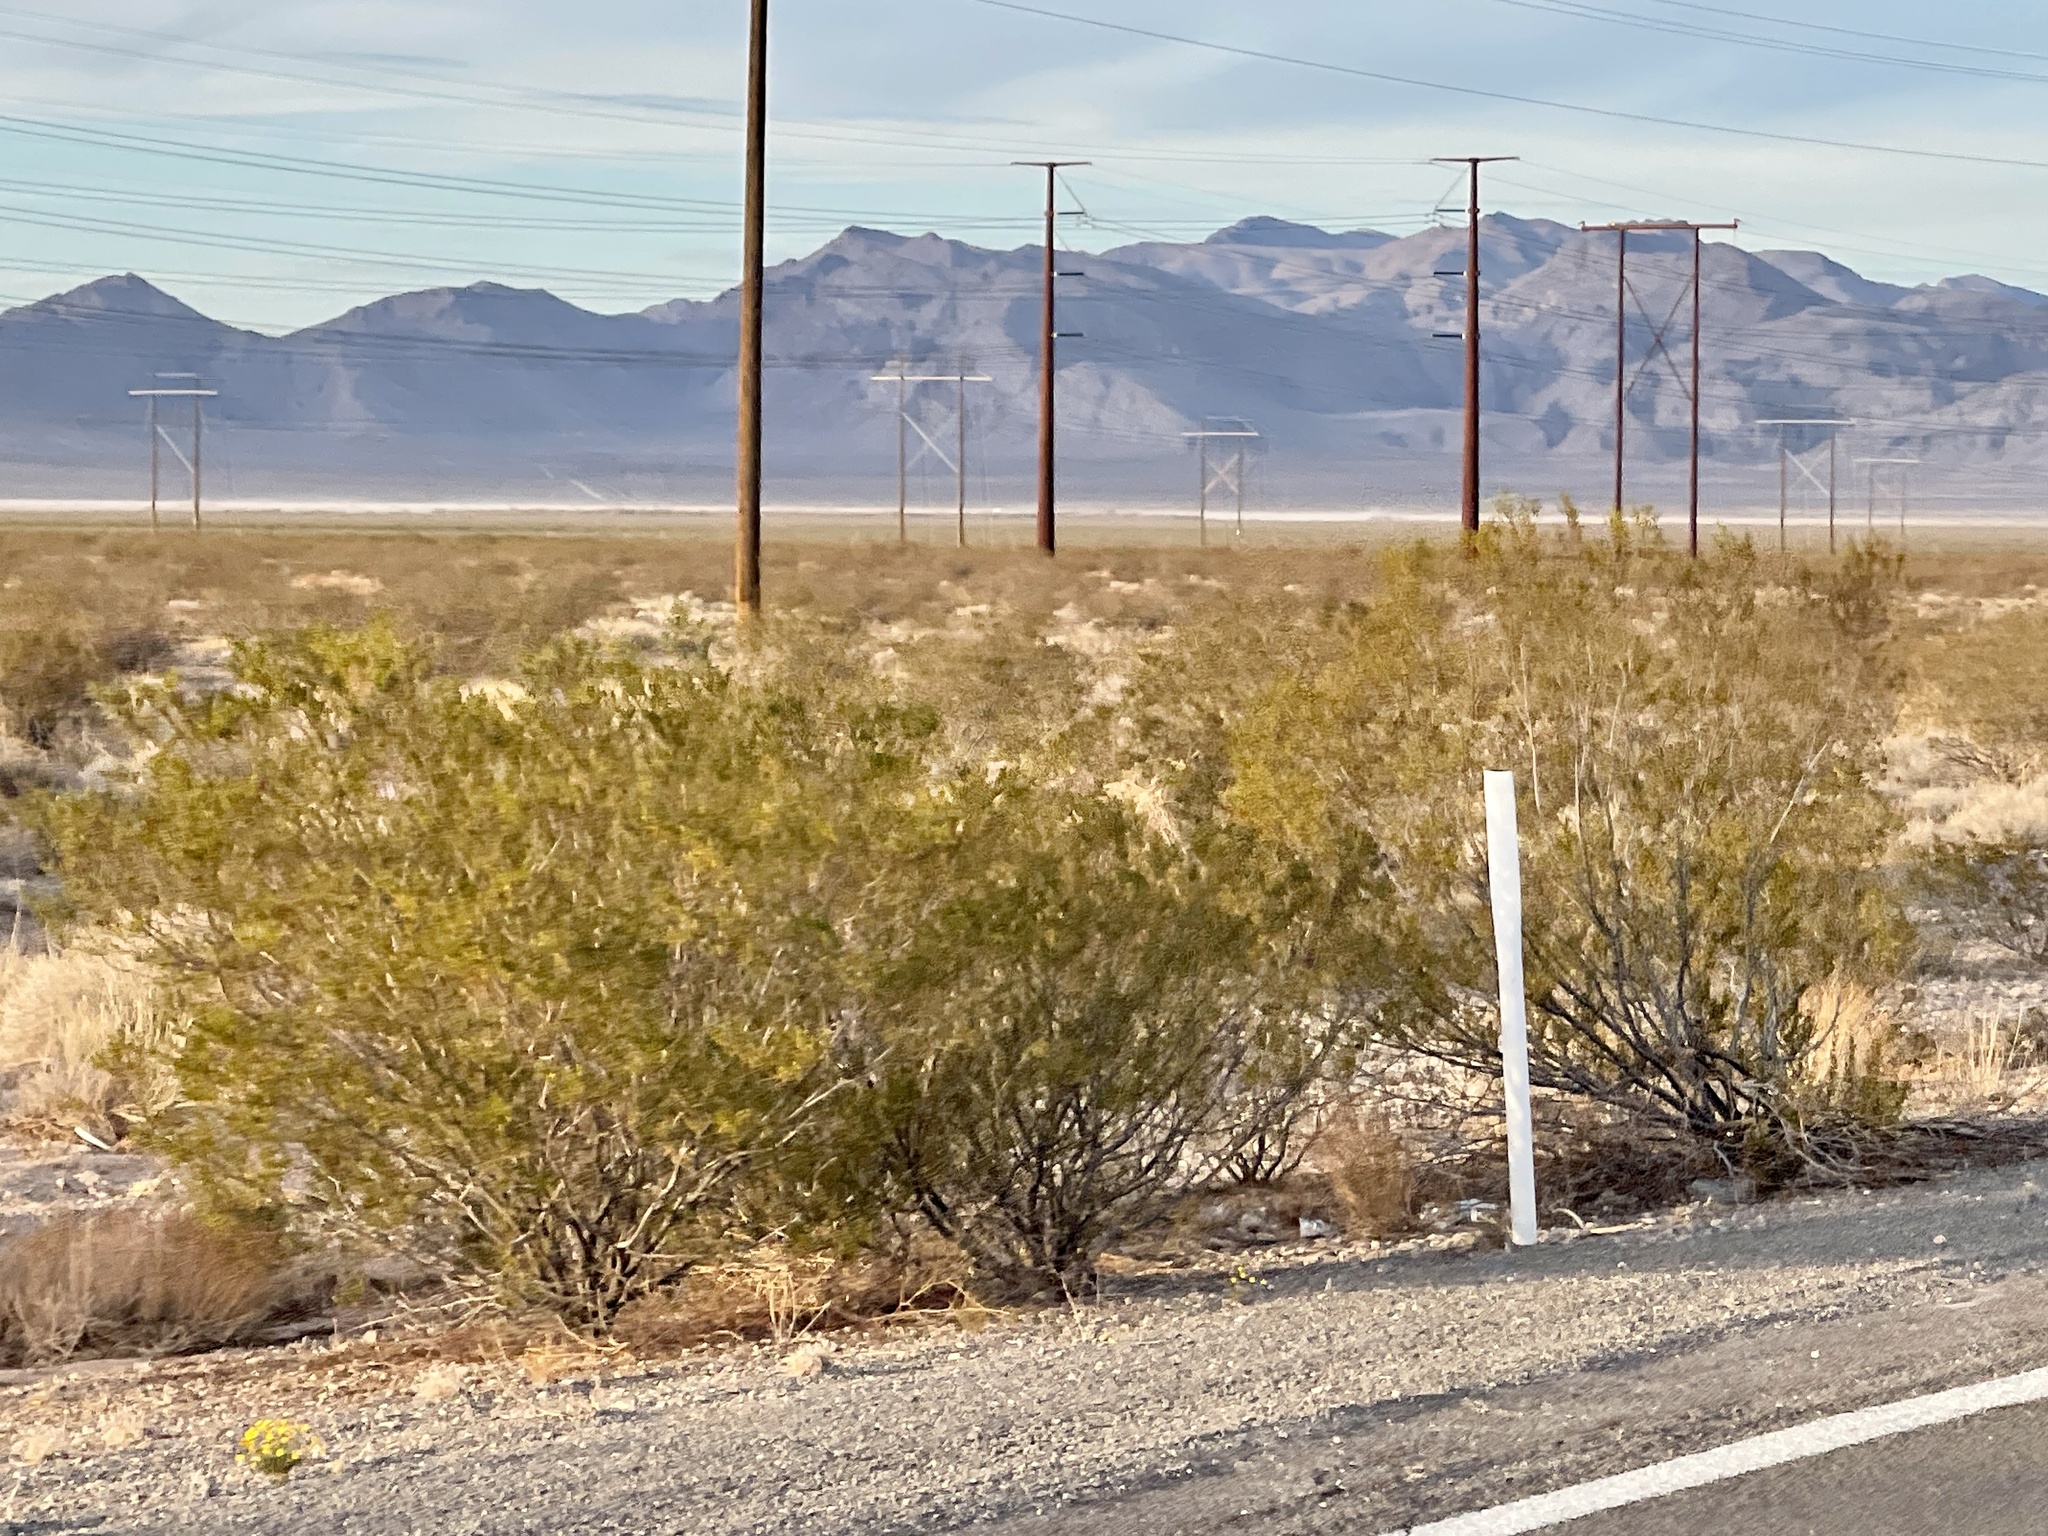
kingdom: Plantae
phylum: Tracheophyta
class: Magnoliopsida
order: Zygophyllales
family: Zygophyllaceae
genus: Larrea
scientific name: Larrea tridentata
